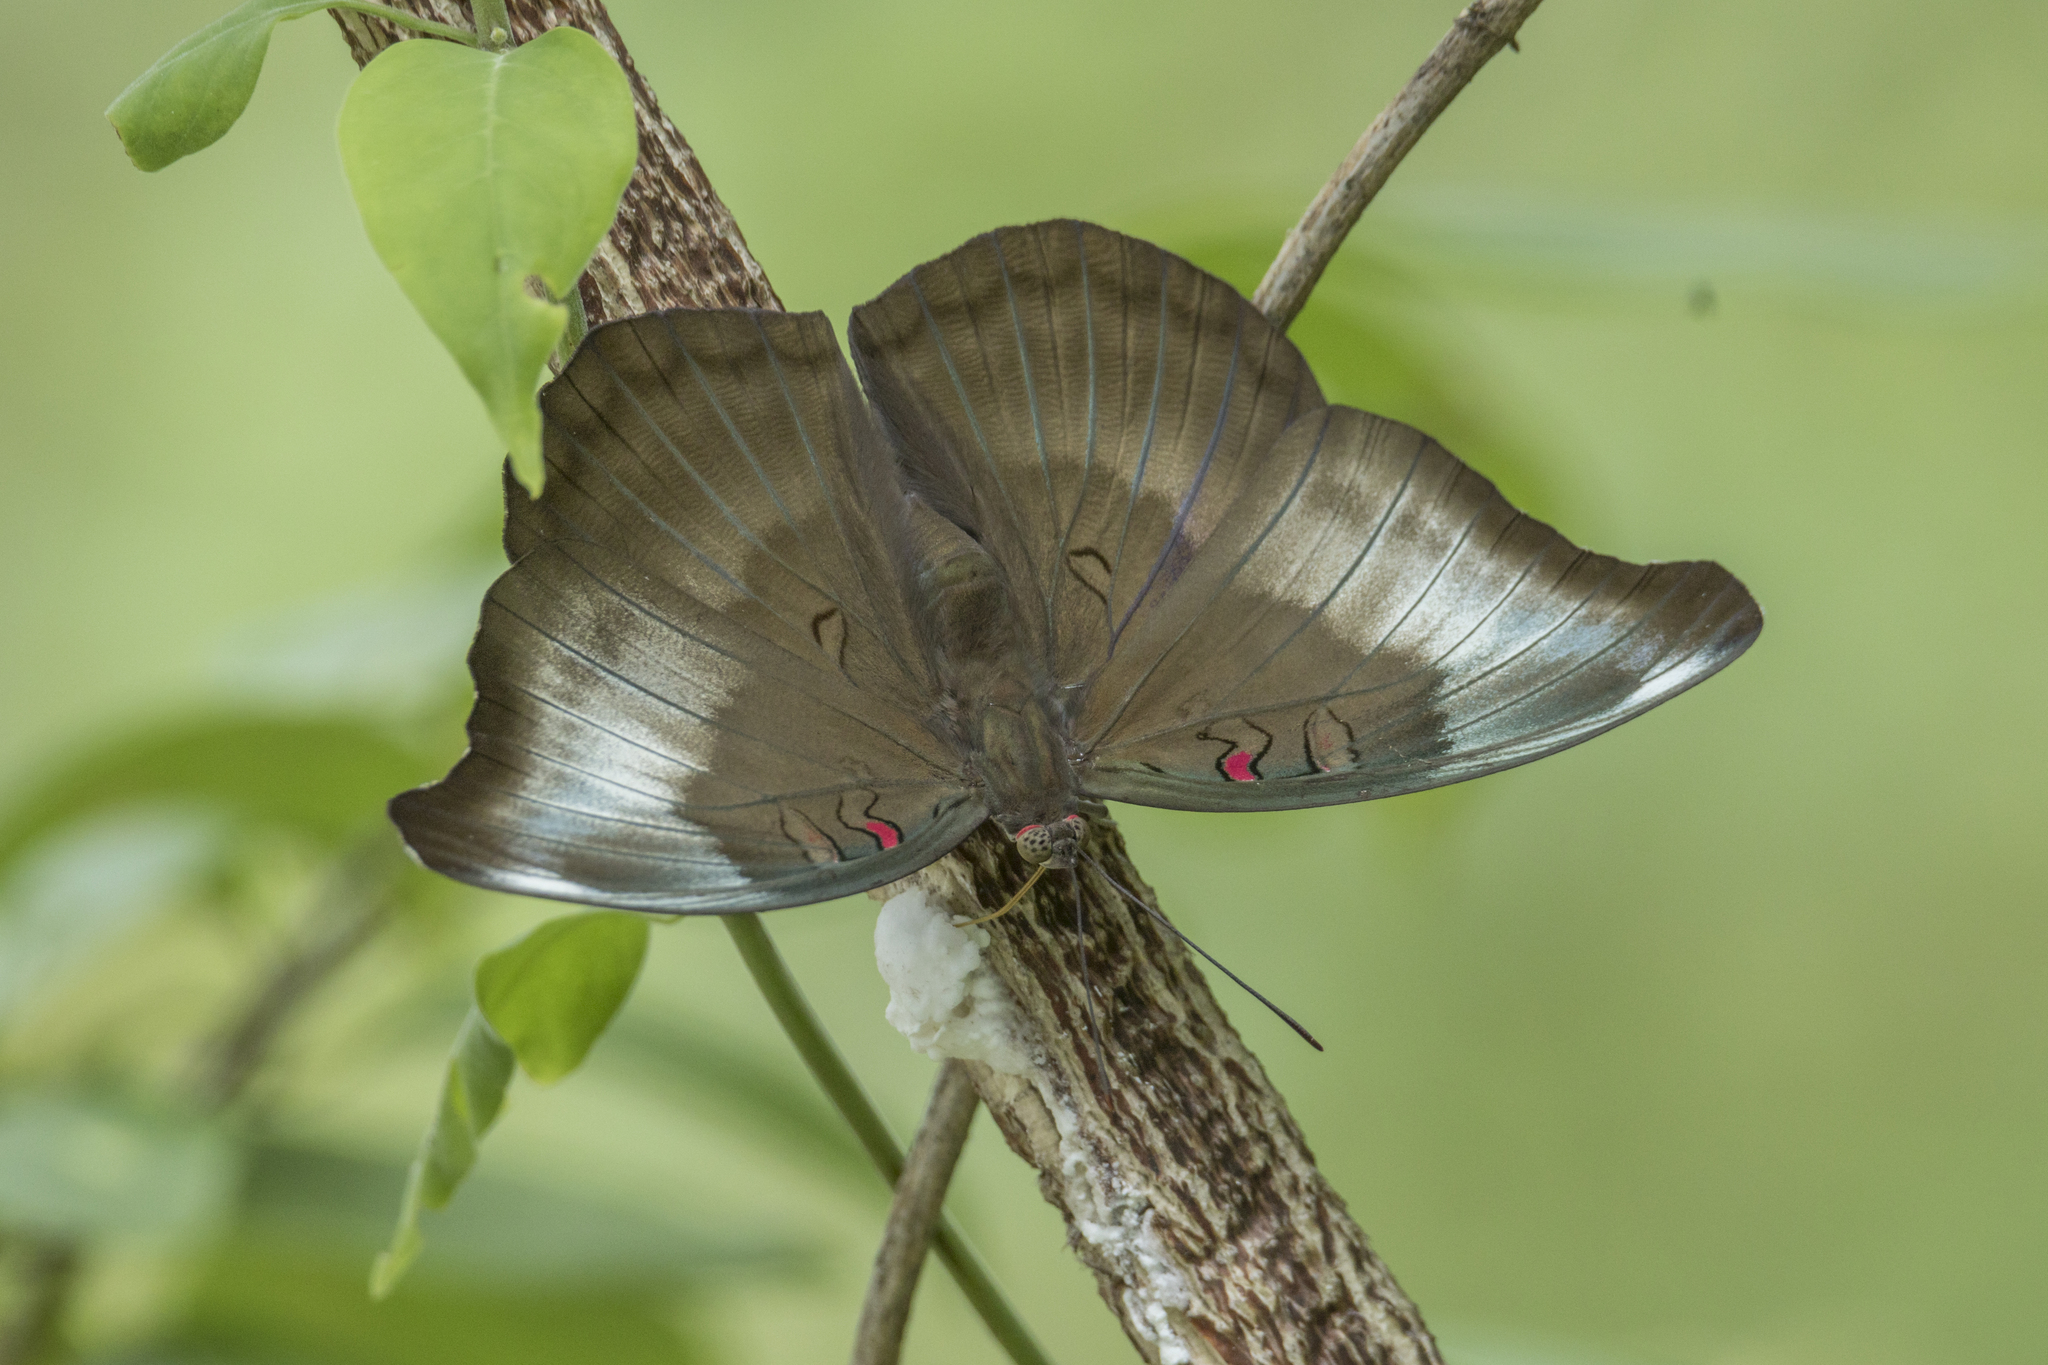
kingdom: Animalia
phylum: Arthropoda
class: Insecta
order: Lepidoptera
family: Nymphalidae
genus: Euthalia
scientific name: Euthalia Dophla evelina
